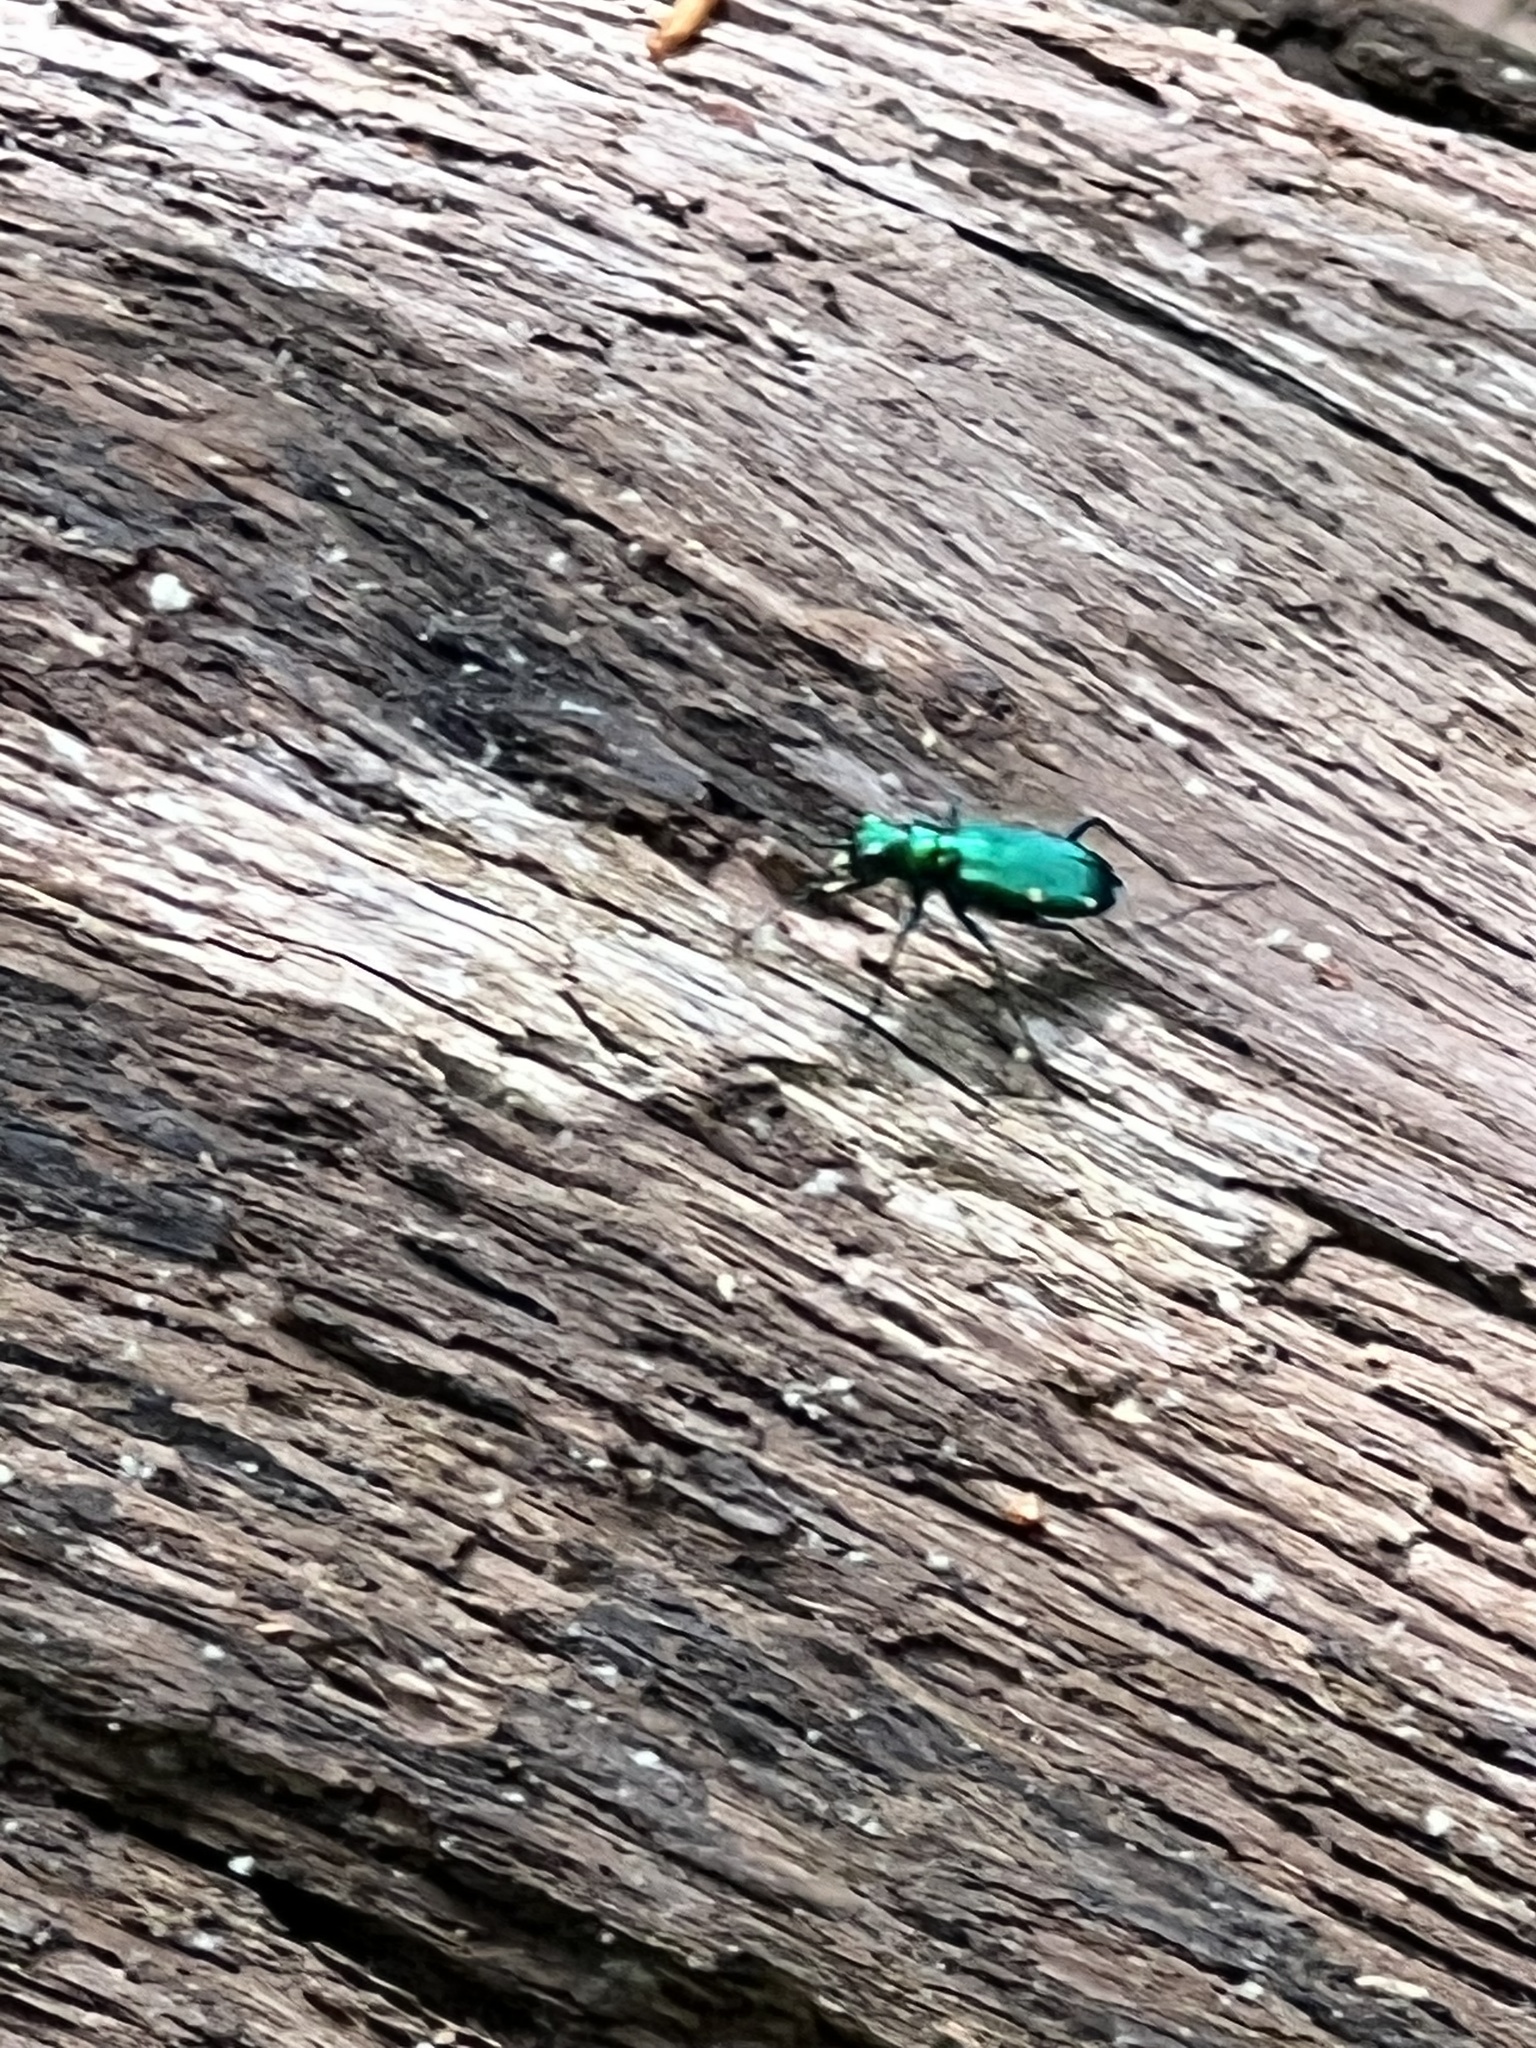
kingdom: Animalia
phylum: Arthropoda
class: Insecta
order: Coleoptera
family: Carabidae
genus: Cicindela
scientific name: Cicindela sexguttata
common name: Six-spotted tiger beetle
